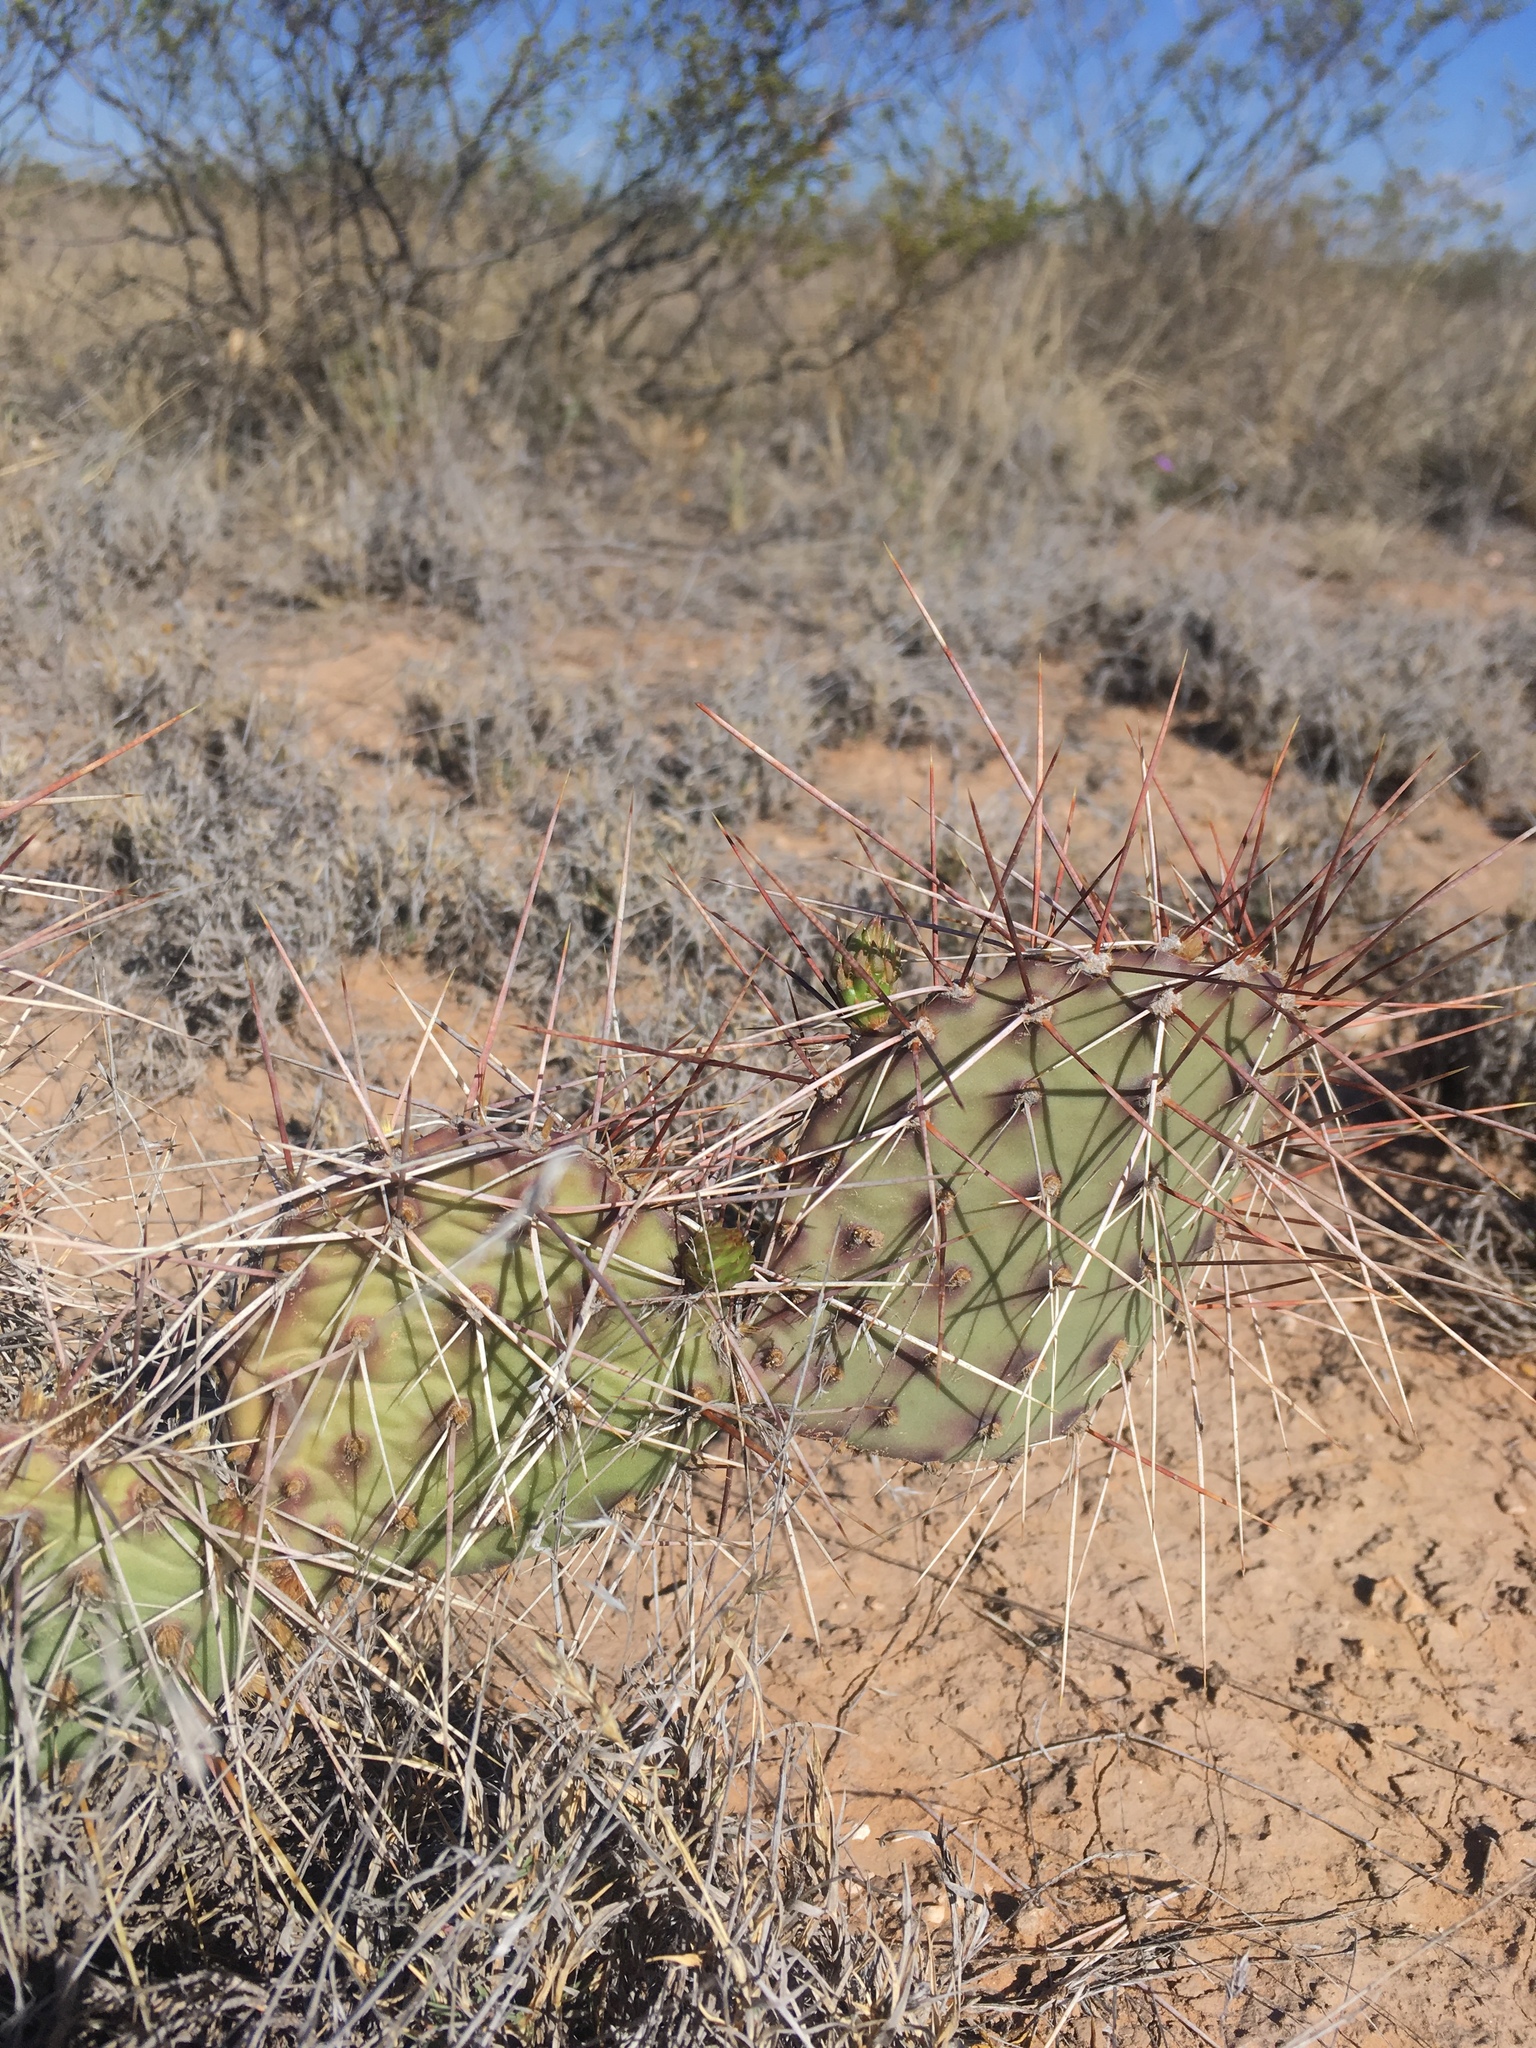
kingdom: Plantae
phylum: Tracheophyta
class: Magnoliopsida
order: Caryophyllales
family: Cactaceae
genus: Opuntia
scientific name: Opuntia macrorhiza
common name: Grassland pricklypear
